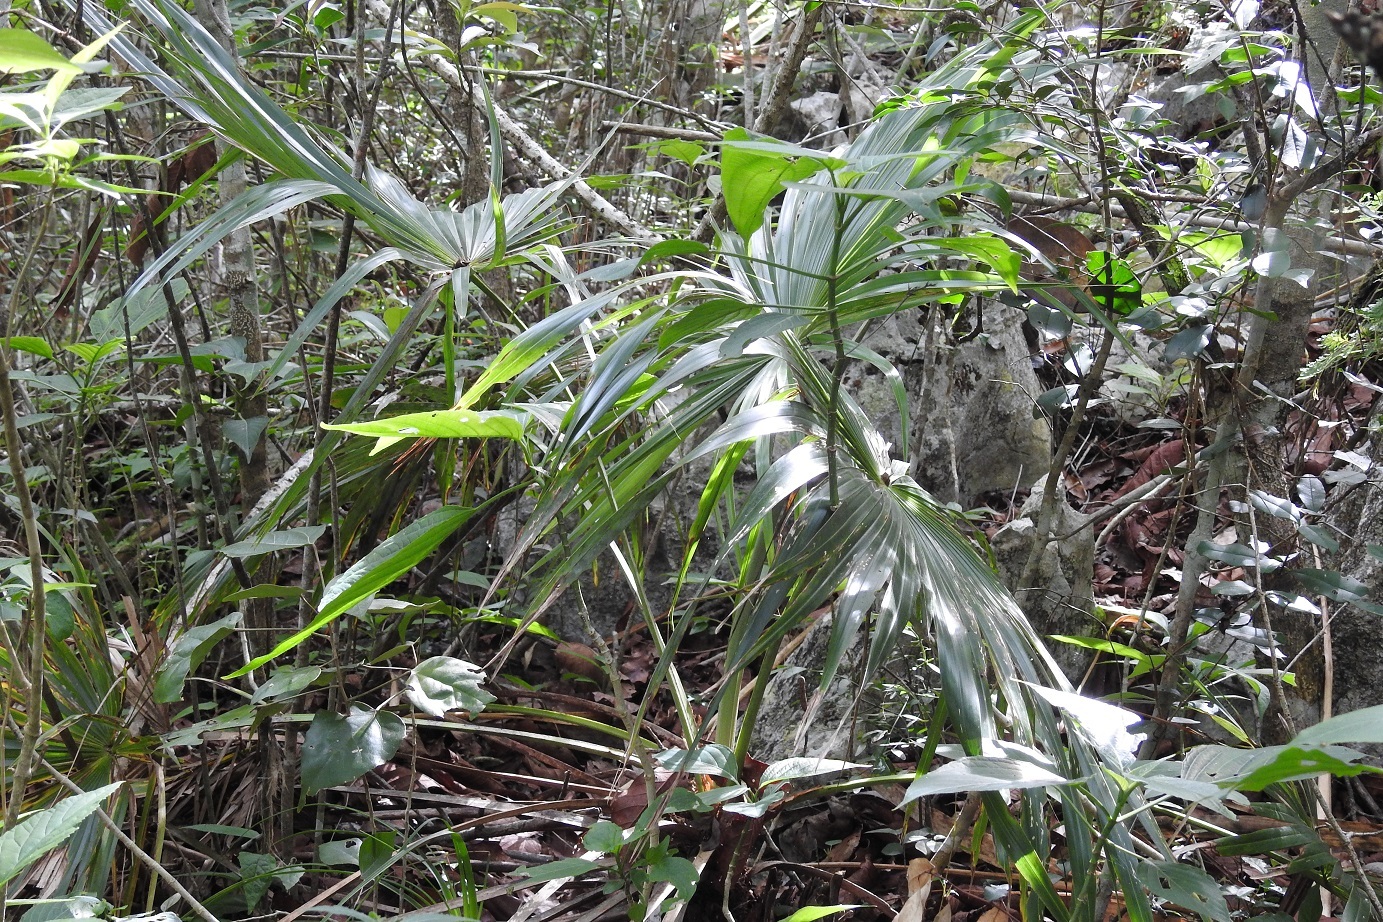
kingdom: Plantae
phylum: Tracheophyta
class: Liliopsida
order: Arecales
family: Arecaceae
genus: Brahea
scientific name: Brahea nitida
